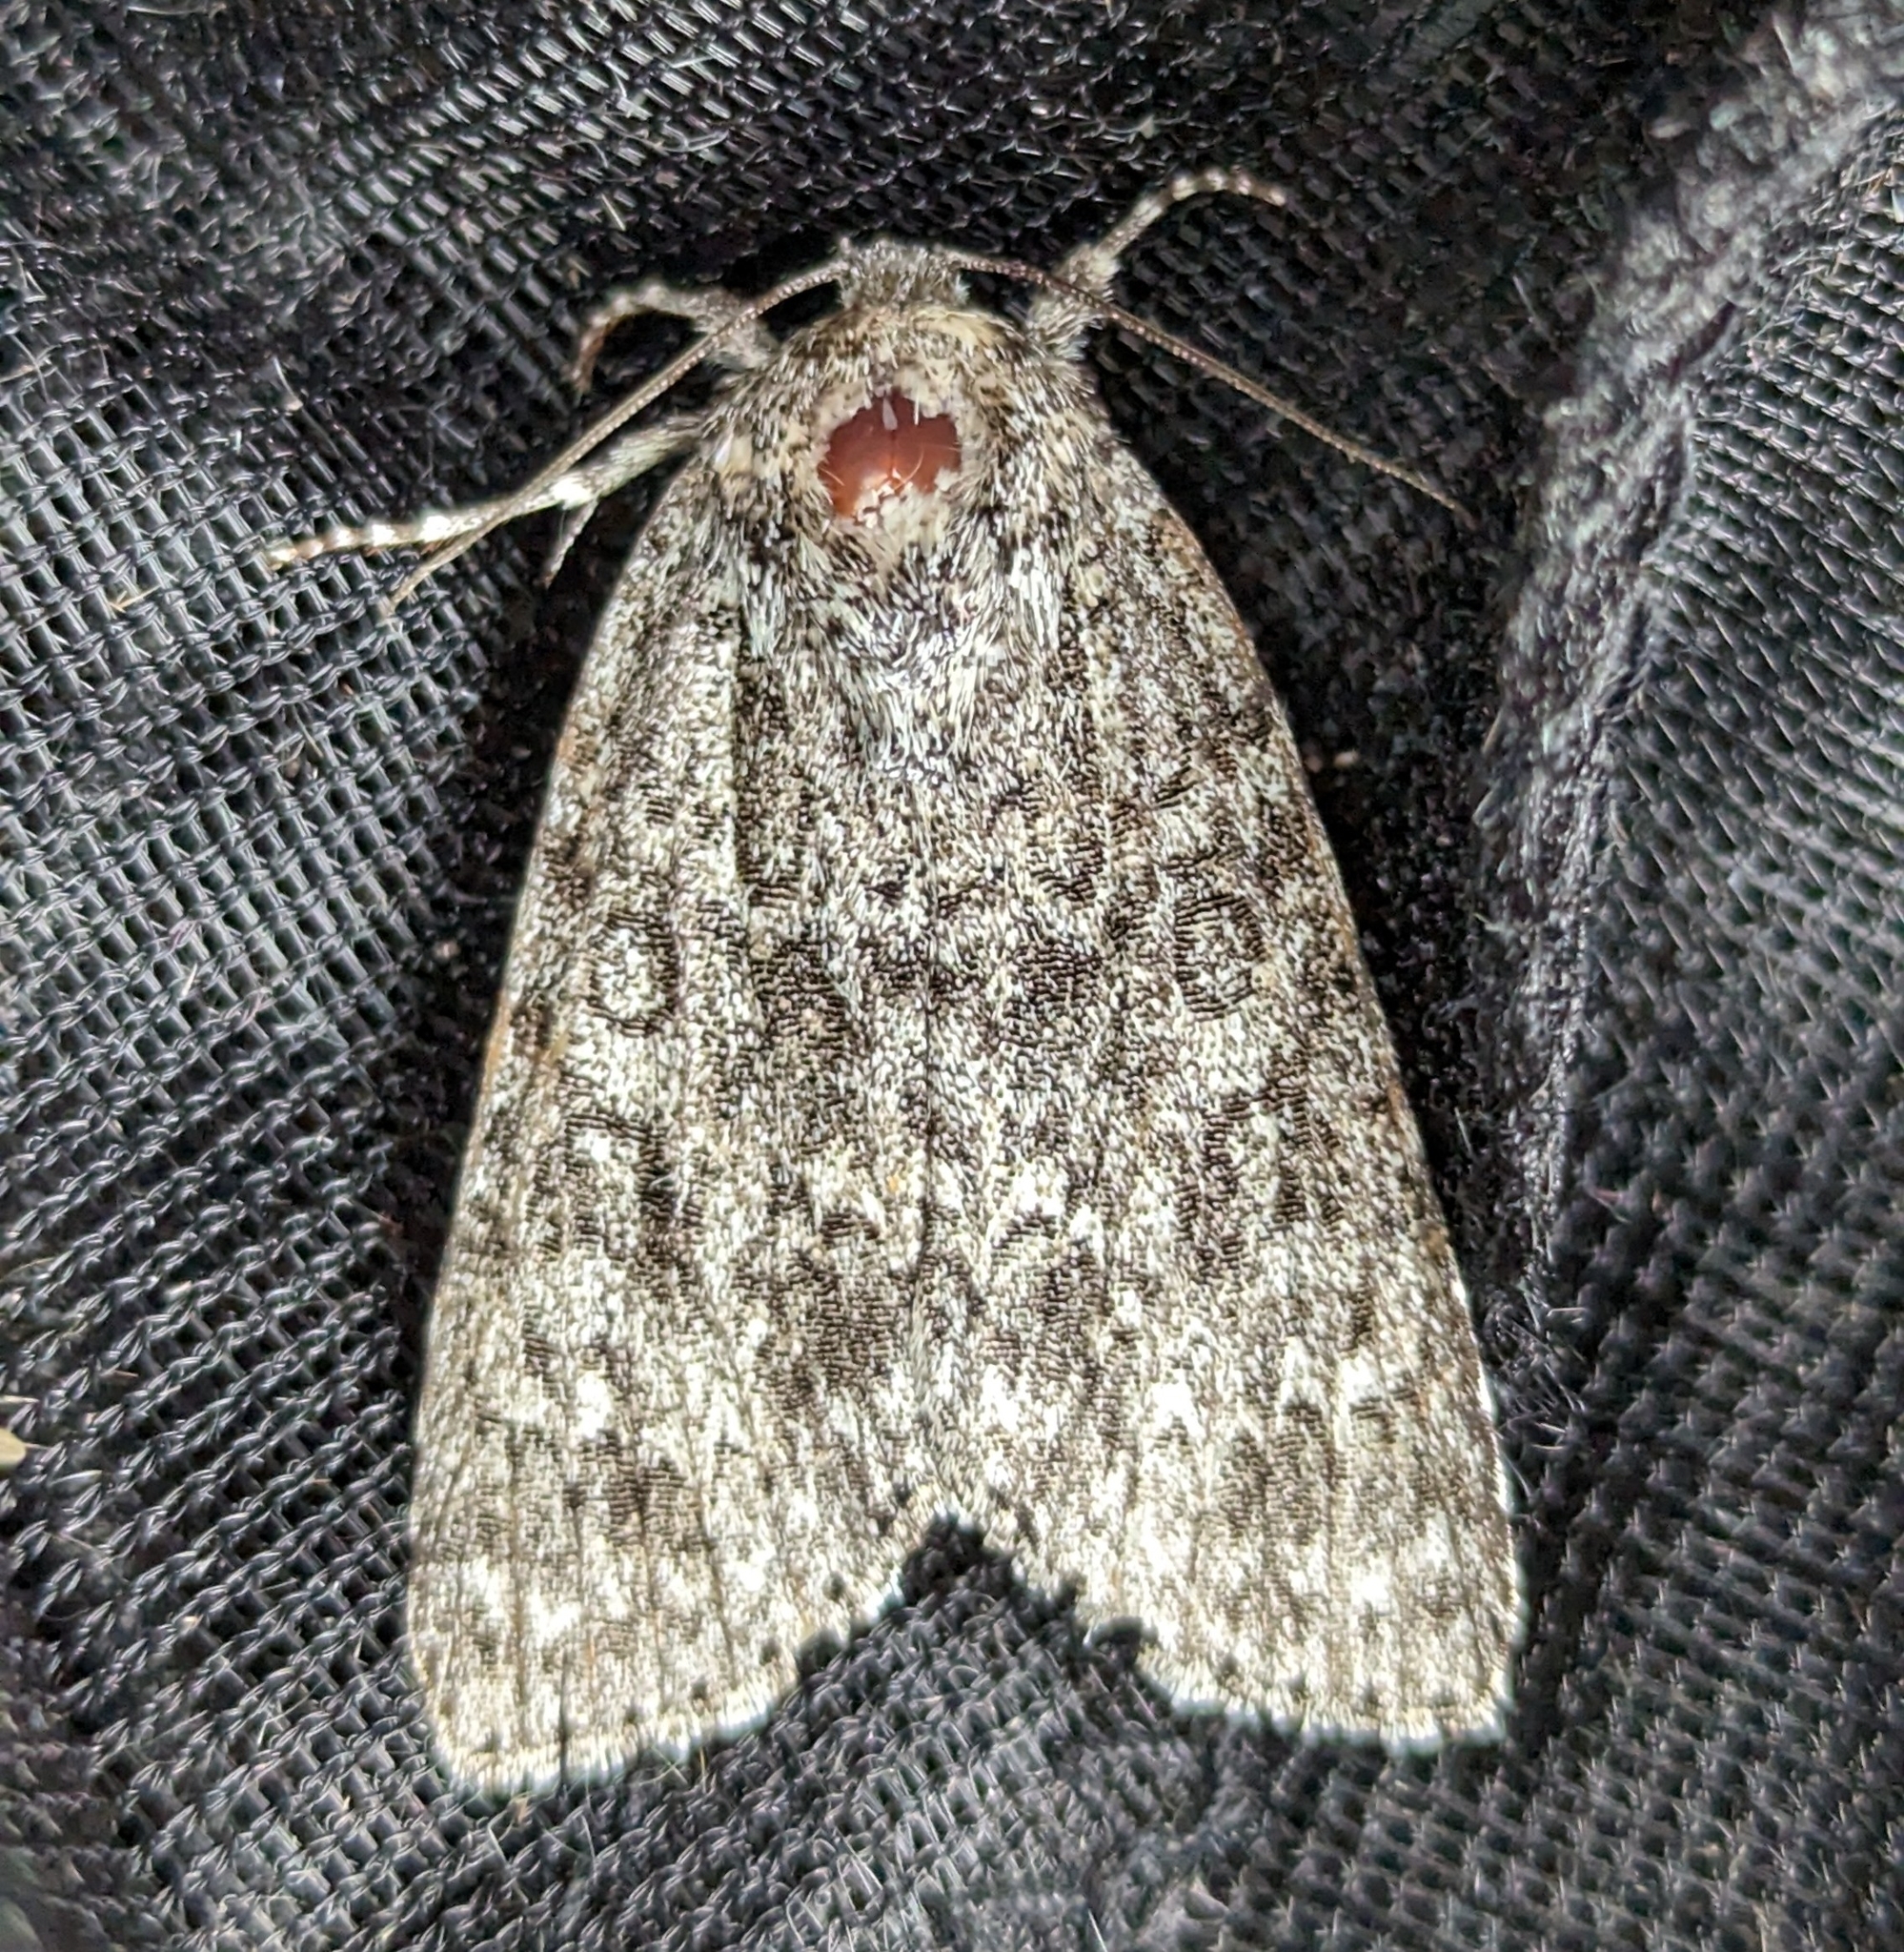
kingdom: Animalia
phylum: Arthropoda
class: Insecta
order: Lepidoptera
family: Noctuidae
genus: Acronicta
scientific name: Acronicta impleta
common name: Powdered dagger
